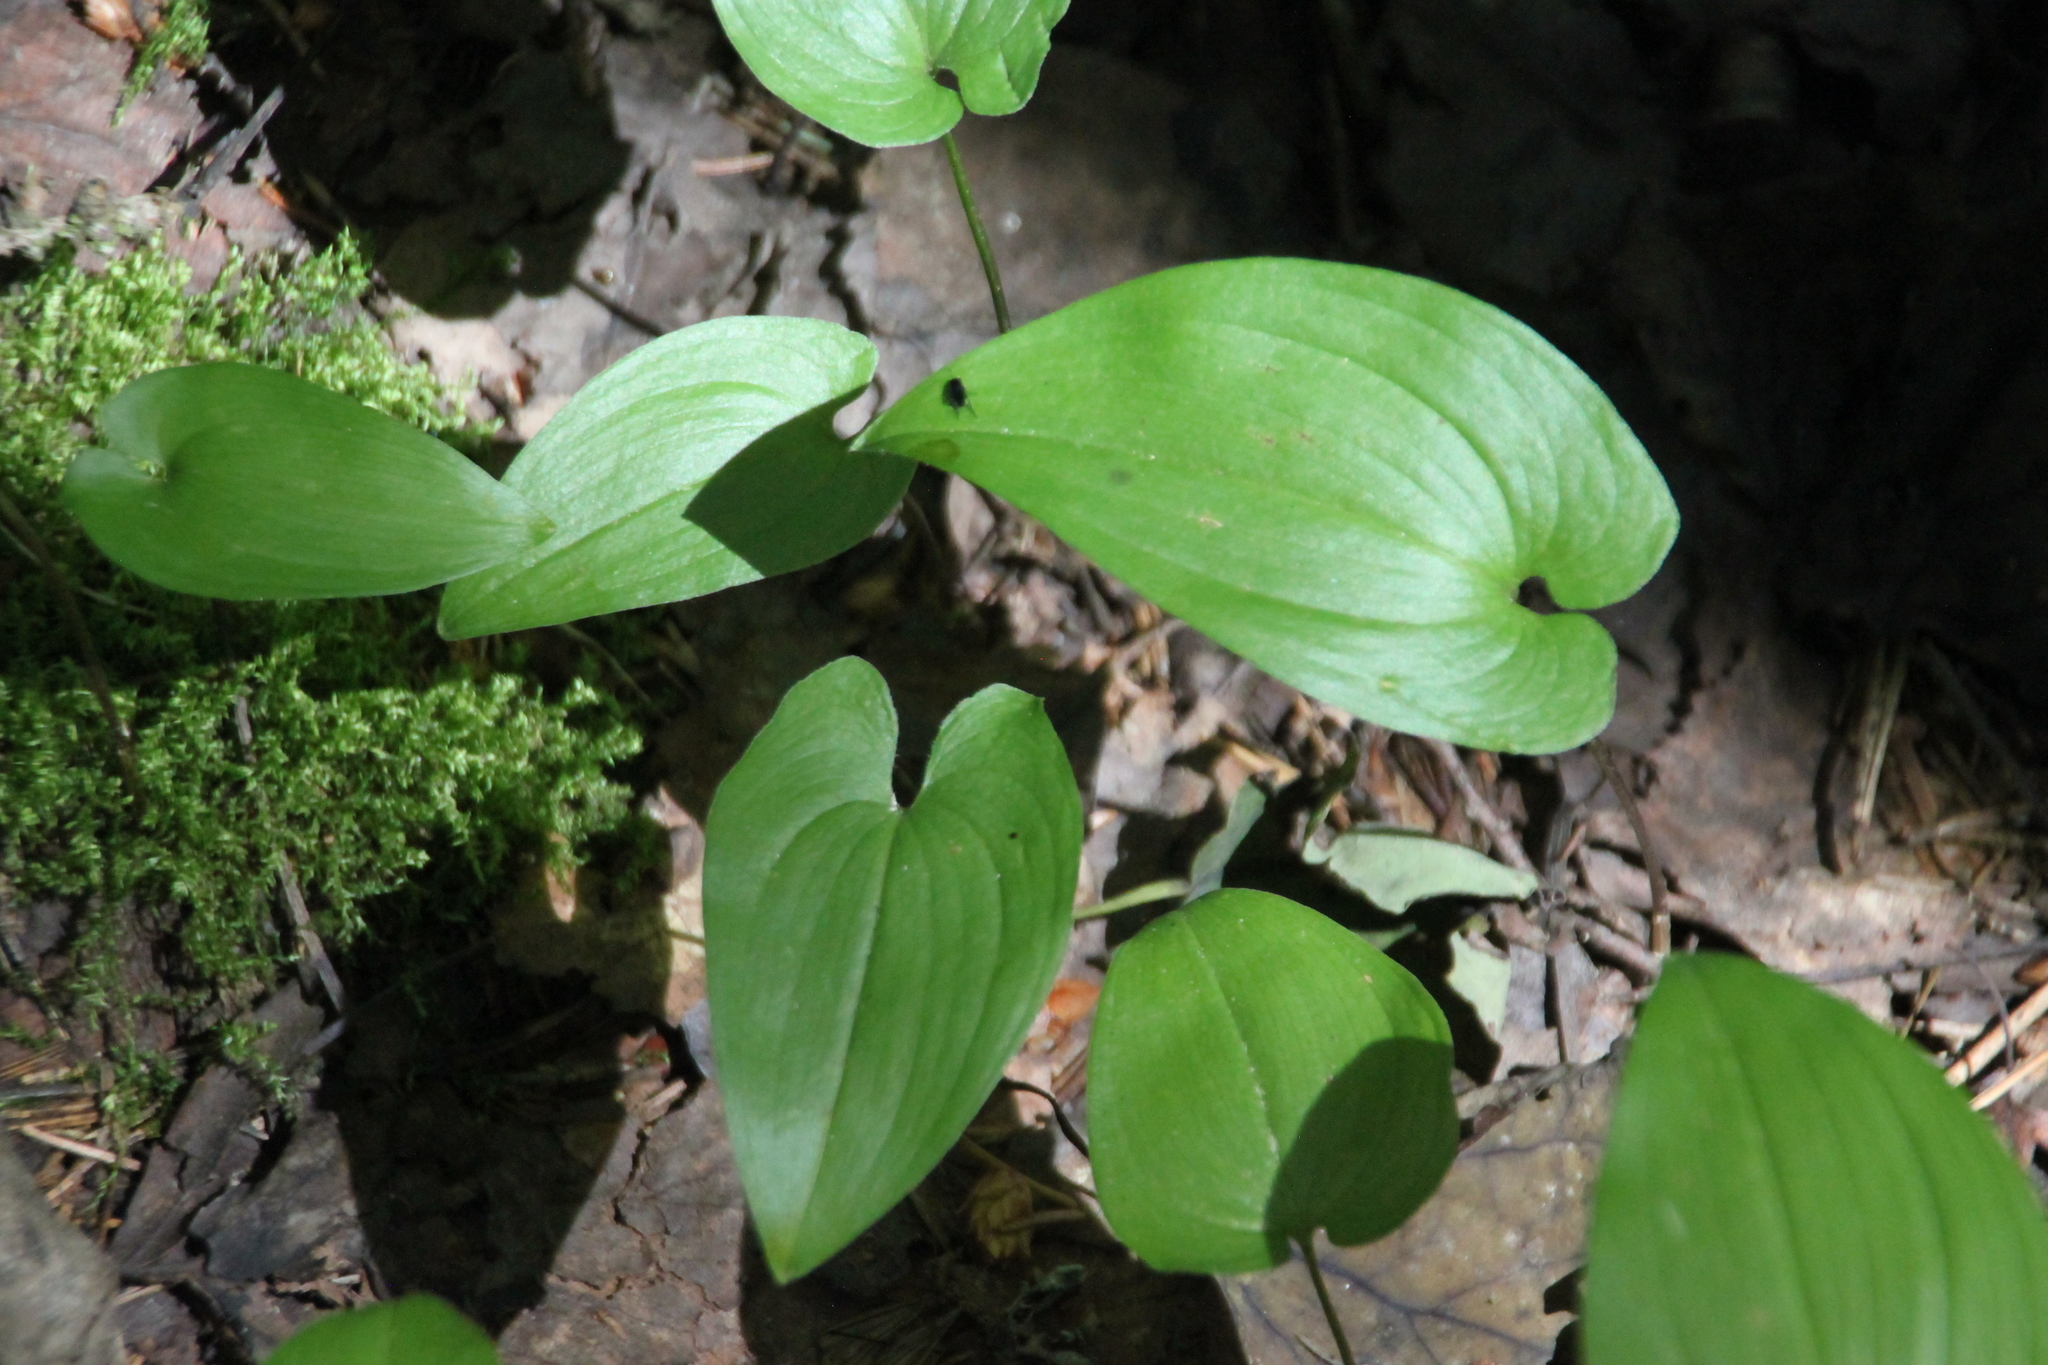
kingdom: Plantae
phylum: Tracheophyta
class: Liliopsida
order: Asparagales
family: Asparagaceae
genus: Maianthemum
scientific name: Maianthemum bifolium
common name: May lily
